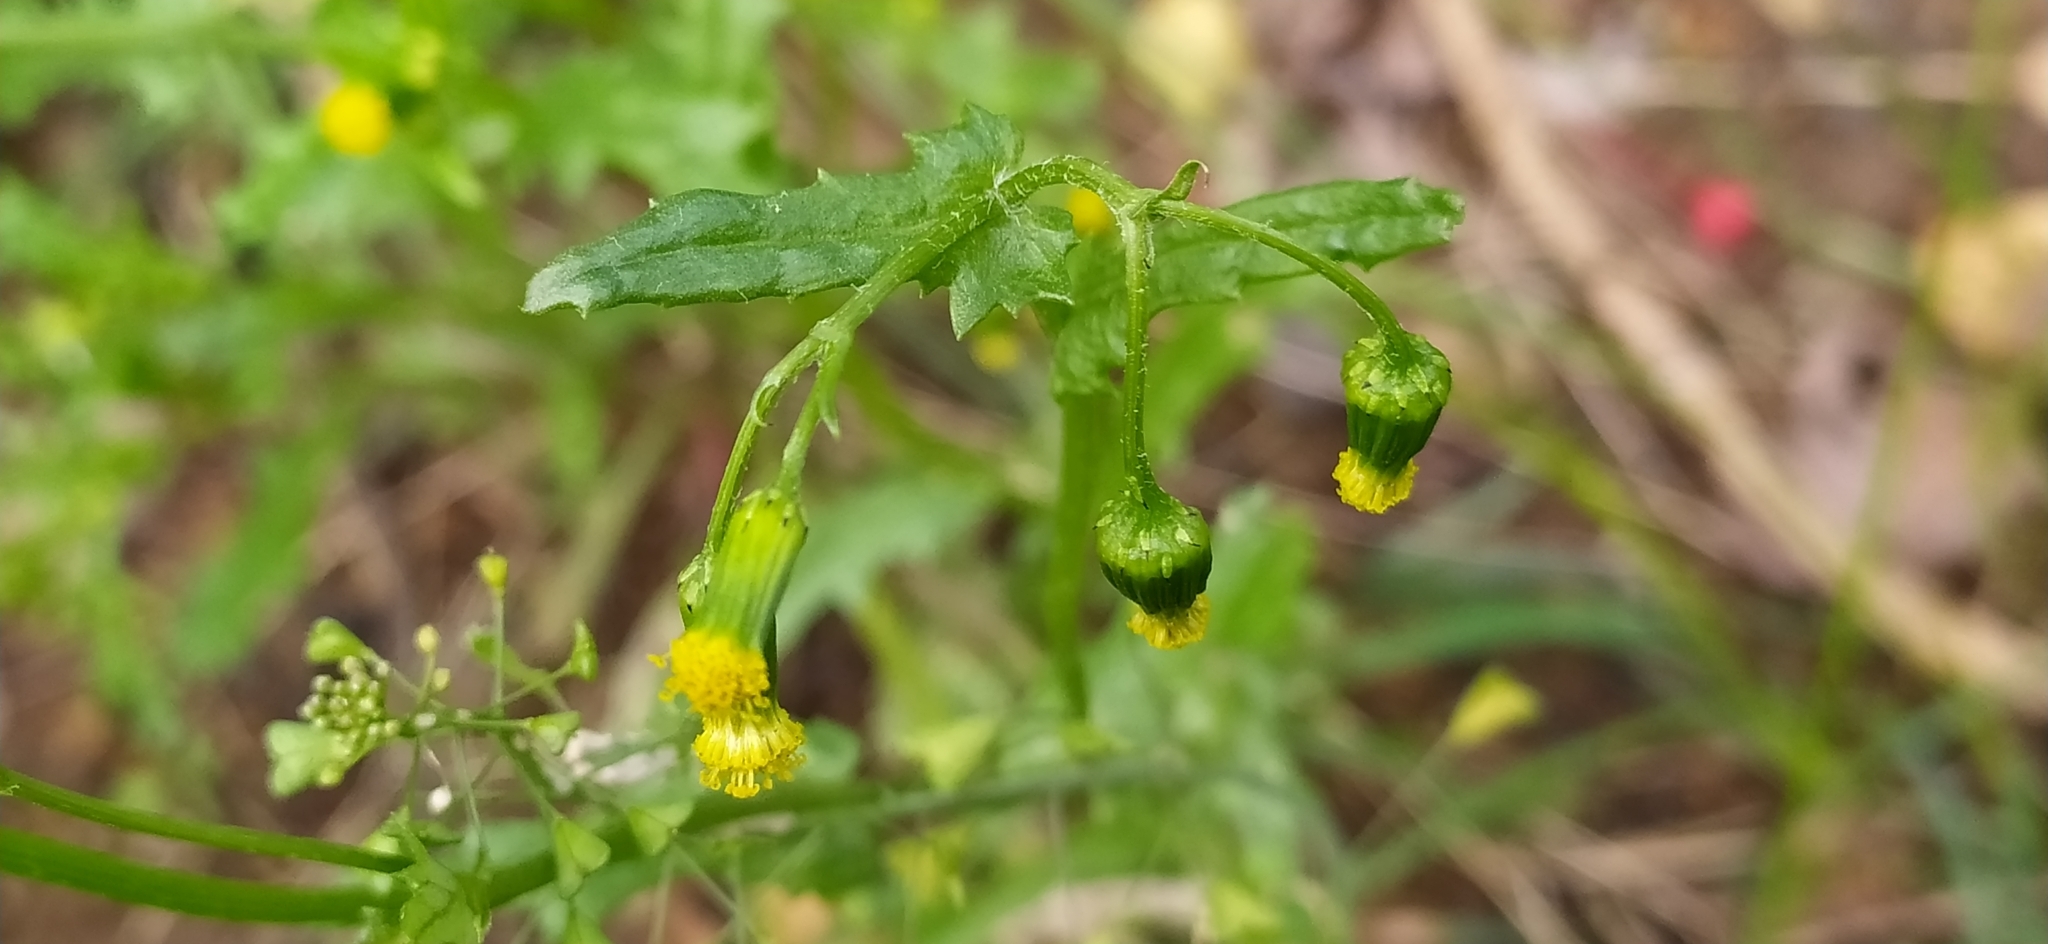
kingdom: Plantae
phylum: Tracheophyta
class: Magnoliopsida
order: Asterales
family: Asteraceae
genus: Senecio
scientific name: Senecio vulgaris
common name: Old-man-in-the-spring
